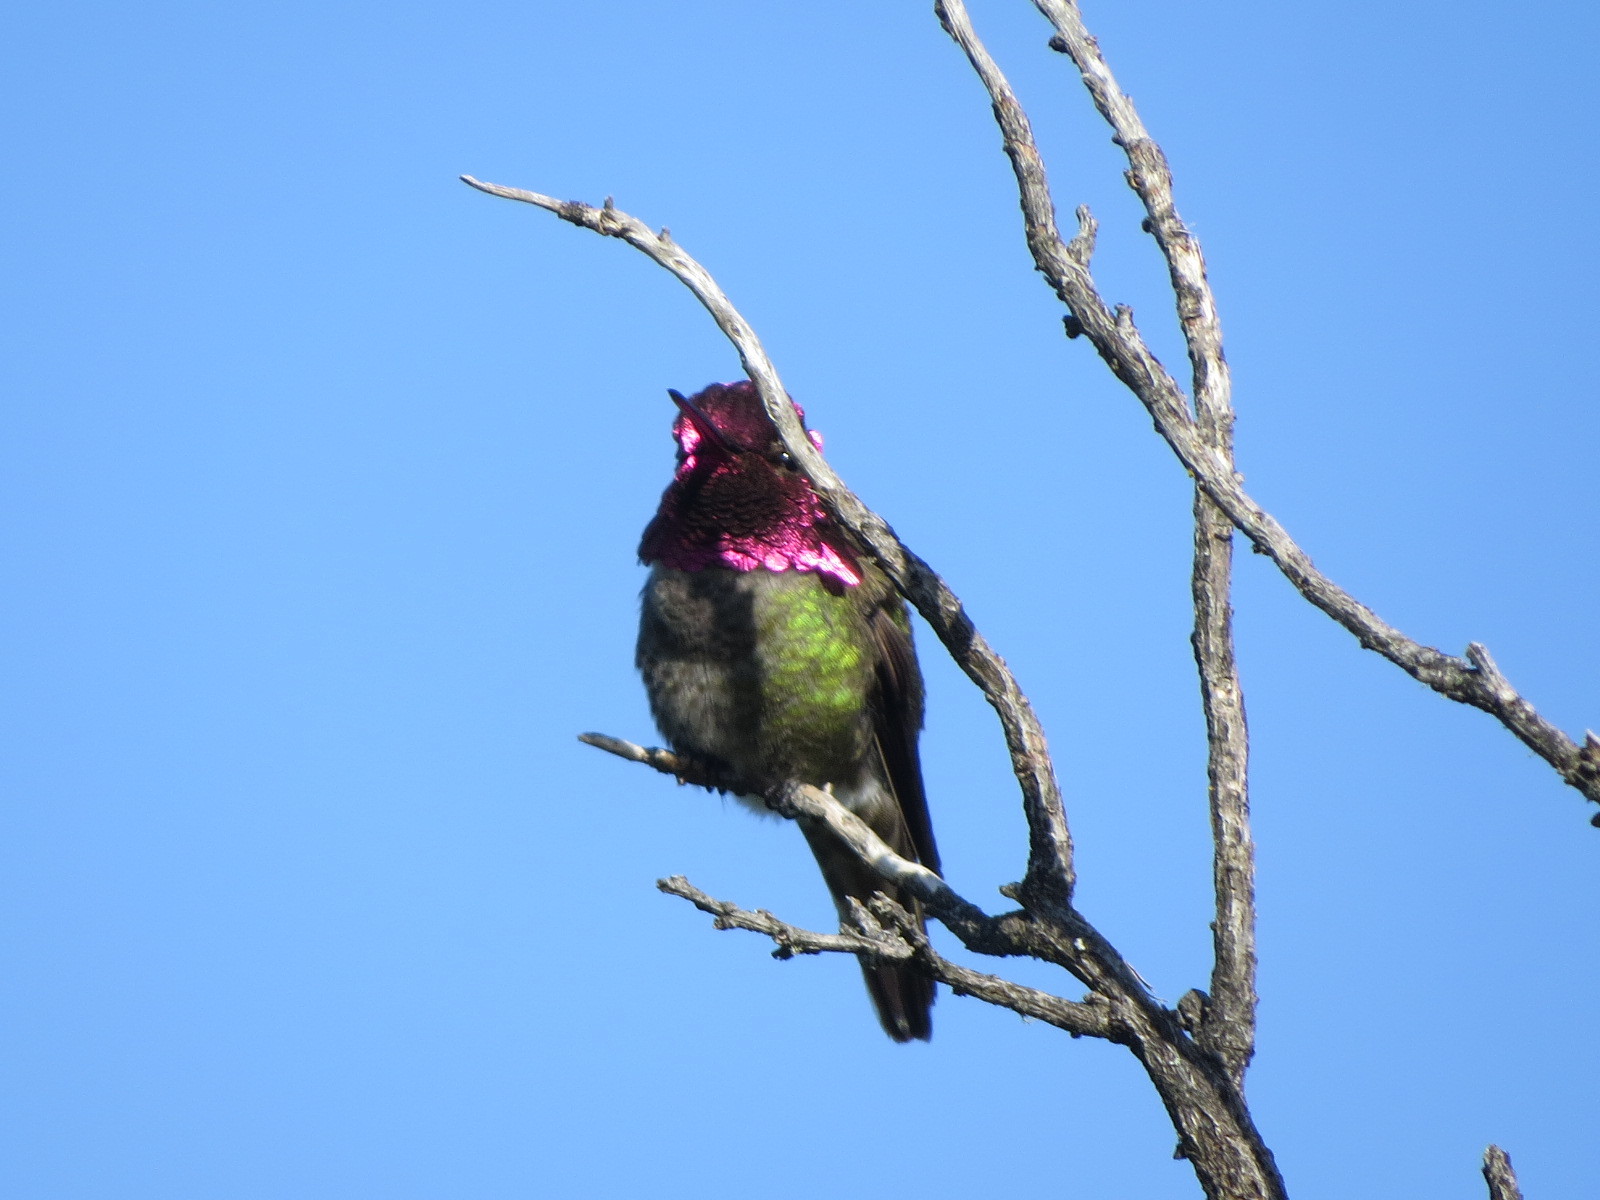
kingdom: Animalia
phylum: Chordata
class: Aves
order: Apodiformes
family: Trochilidae
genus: Calypte
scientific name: Calypte anna
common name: Anna's hummingbird
